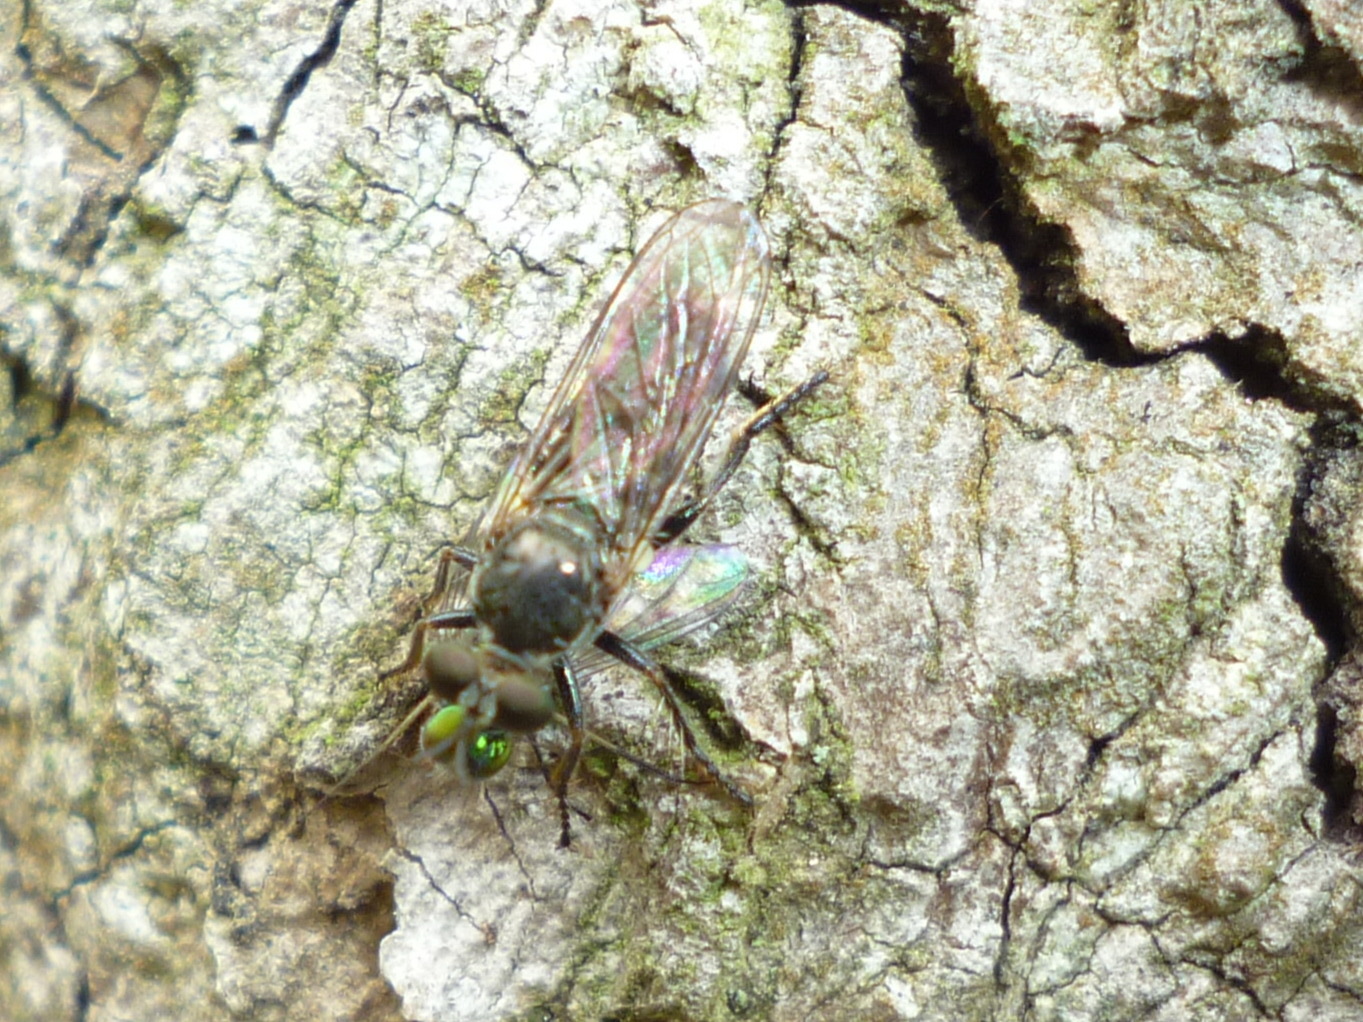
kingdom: Animalia
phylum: Arthropoda
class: Insecta
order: Diptera
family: Asilidae
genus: Atomosia
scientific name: Atomosia puella
